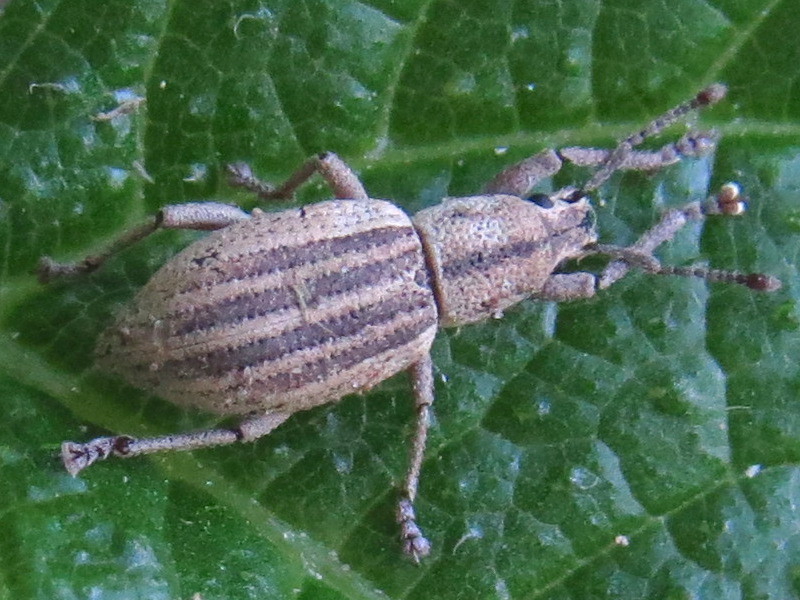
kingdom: Animalia
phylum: Arthropoda
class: Insecta
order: Coleoptera
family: Curculionidae
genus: Aphrastus
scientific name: Aphrastus taeniatus
